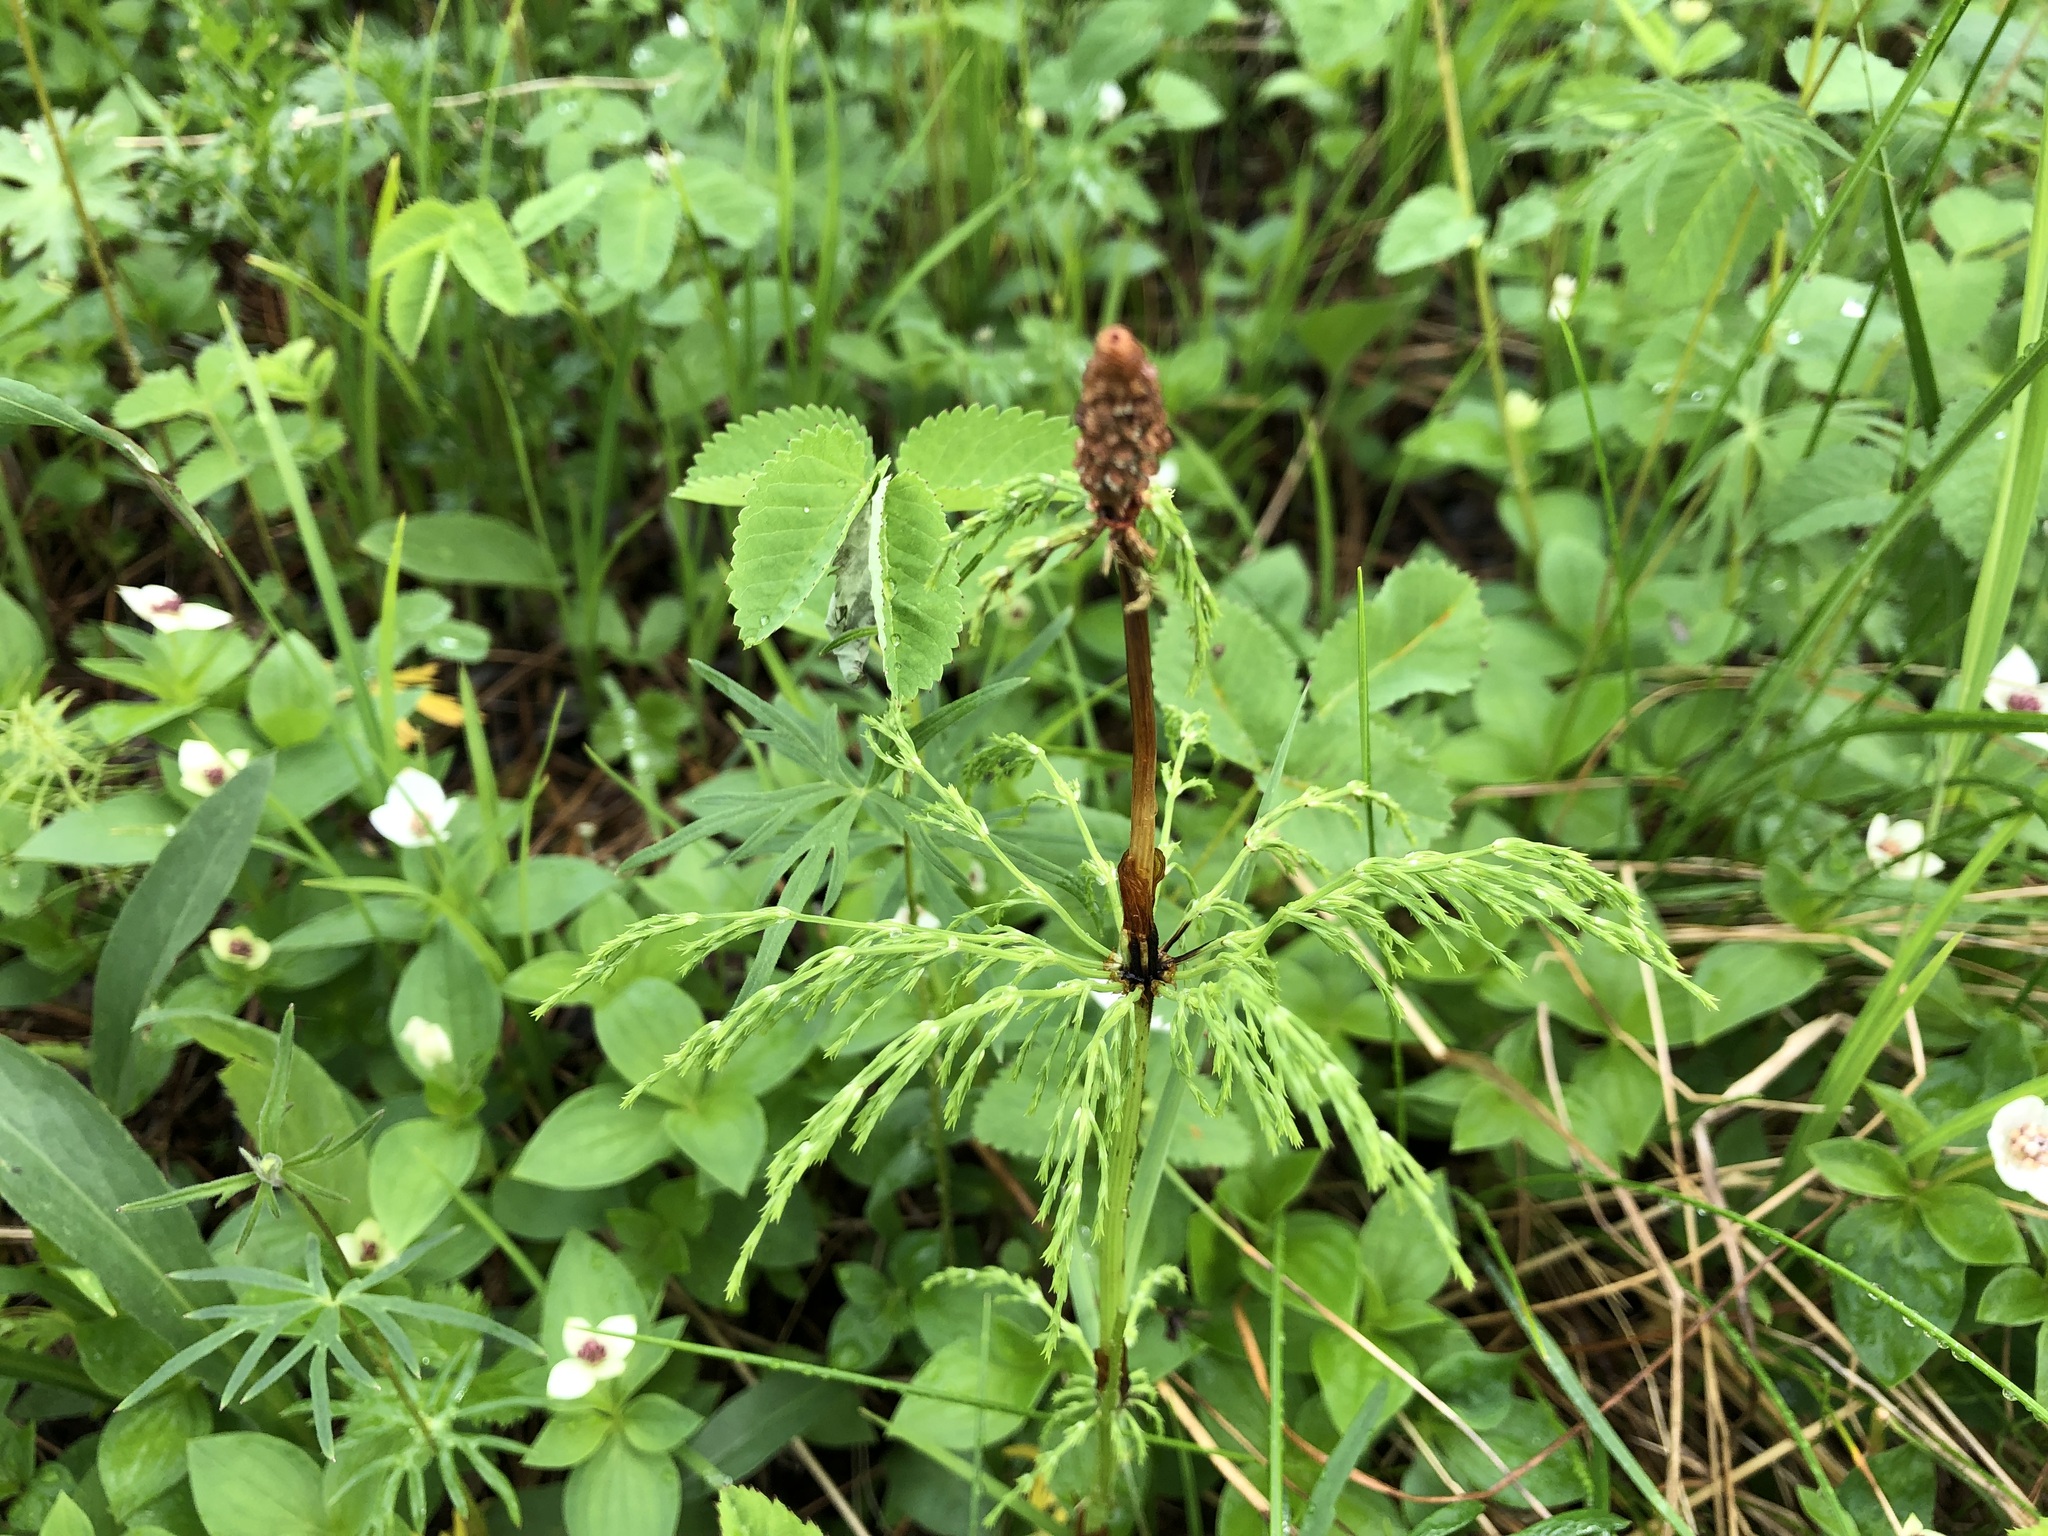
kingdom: Plantae
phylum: Tracheophyta
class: Polypodiopsida
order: Equisetales
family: Equisetaceae
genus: Equisetum
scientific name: Equisetum sylvaticum
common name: Wood horsetail
